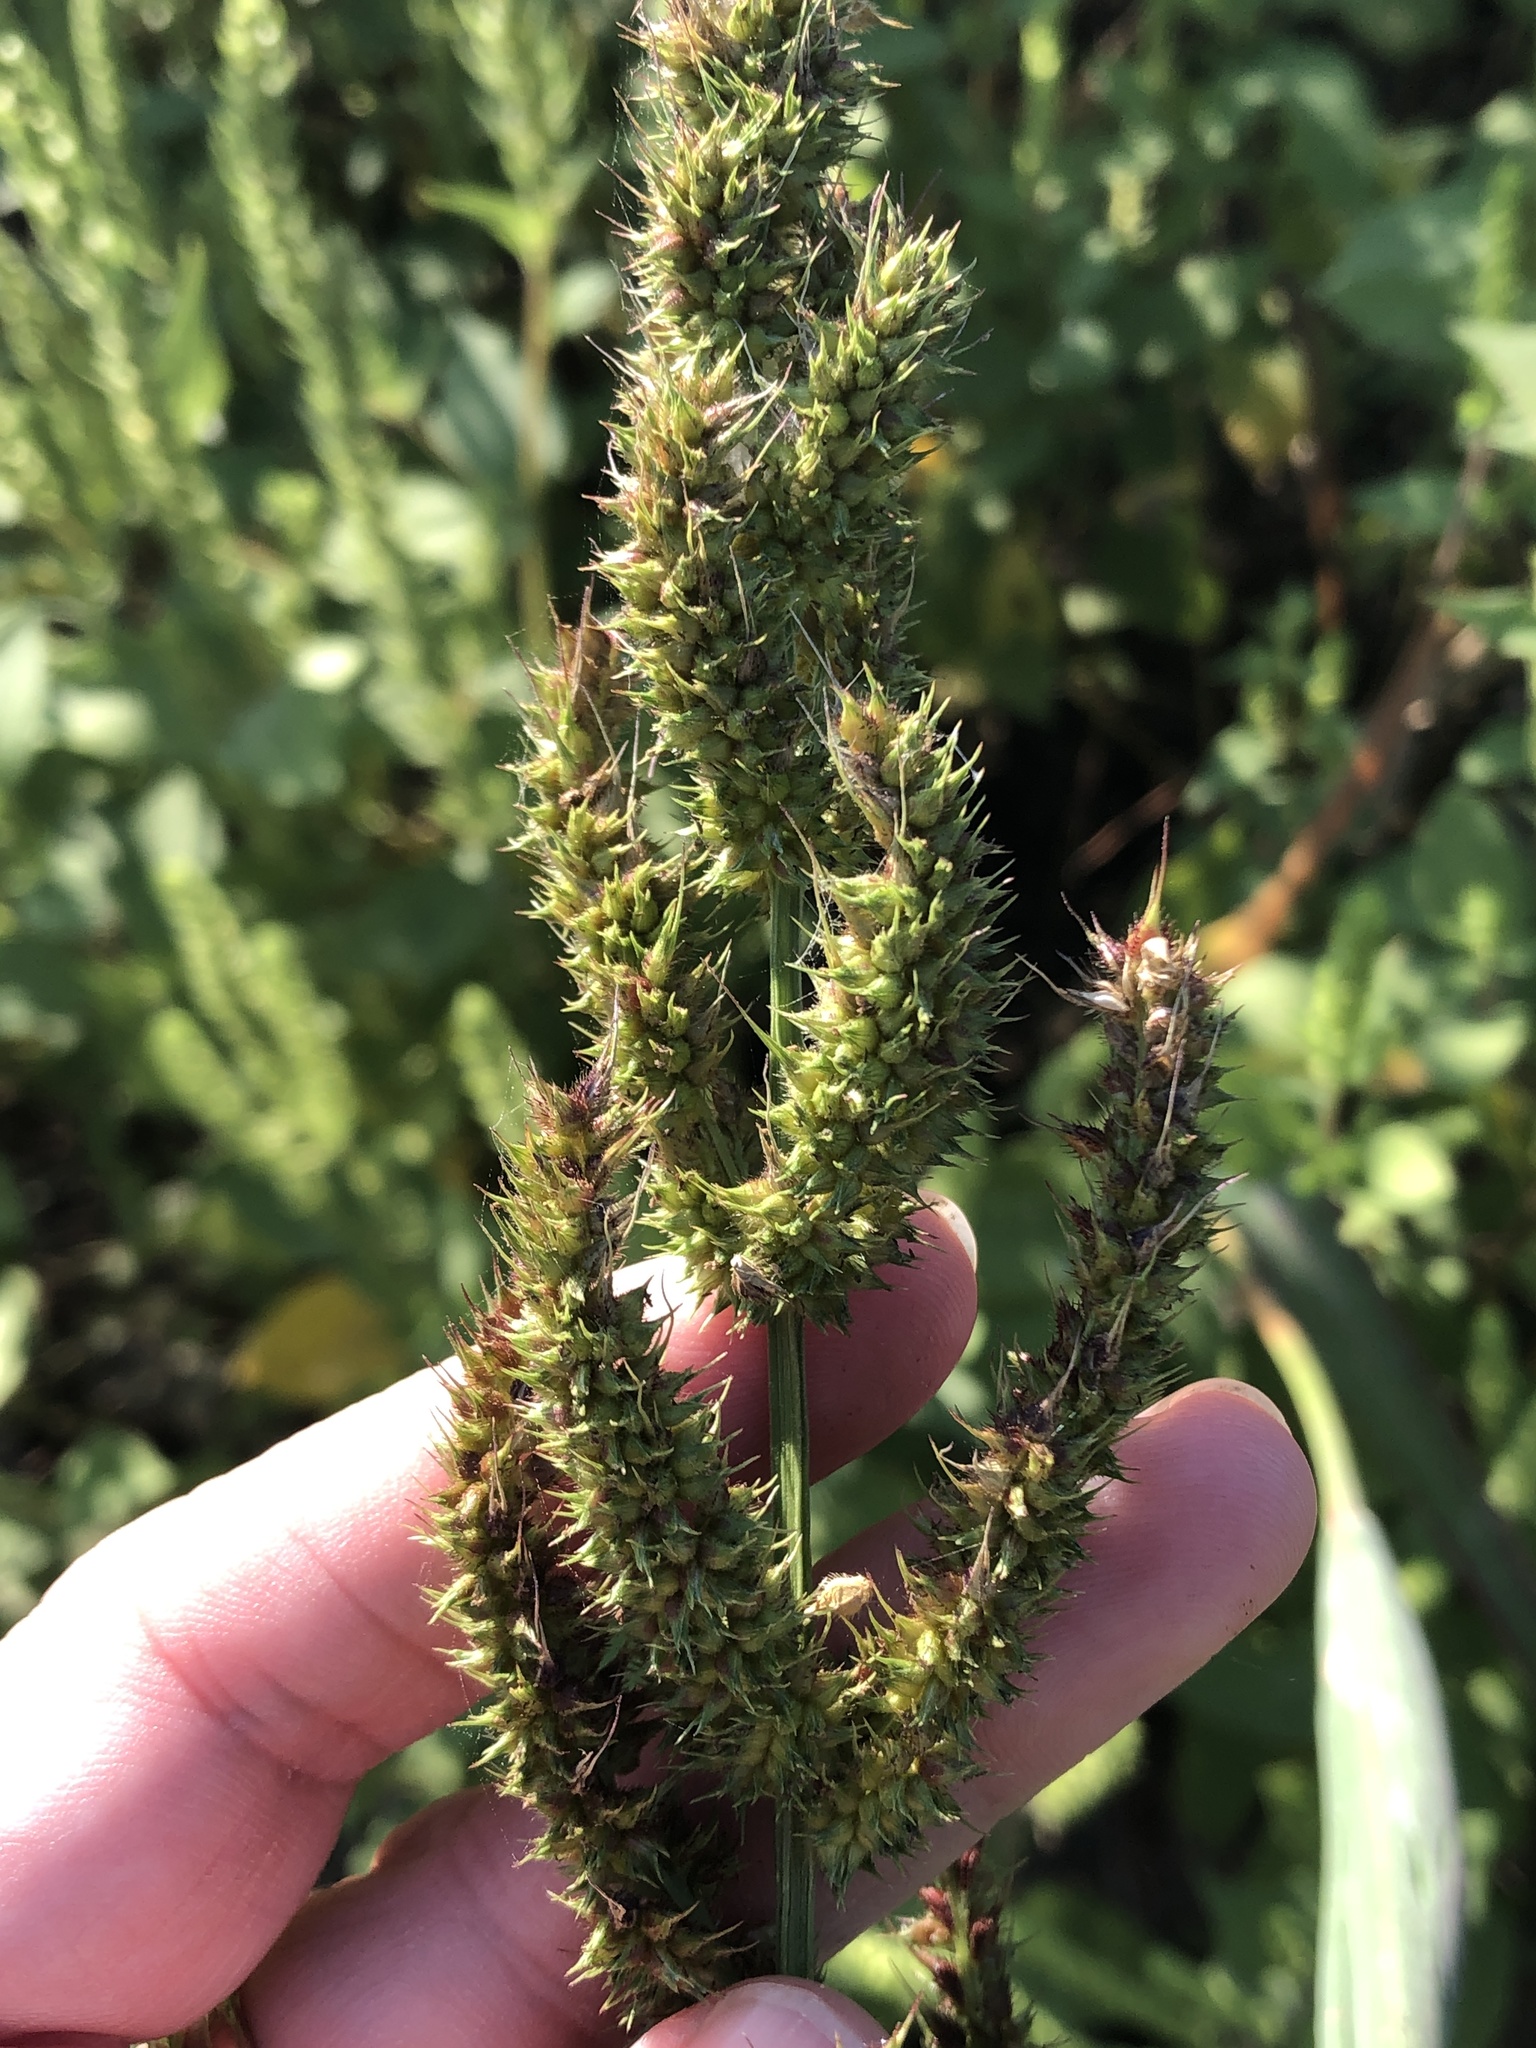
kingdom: Plantae
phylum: Tracheophyta
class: Liliopsida
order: Poales
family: Poaceae
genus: Echinochloa
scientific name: Echinochloa crus-galli
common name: Cockspur
